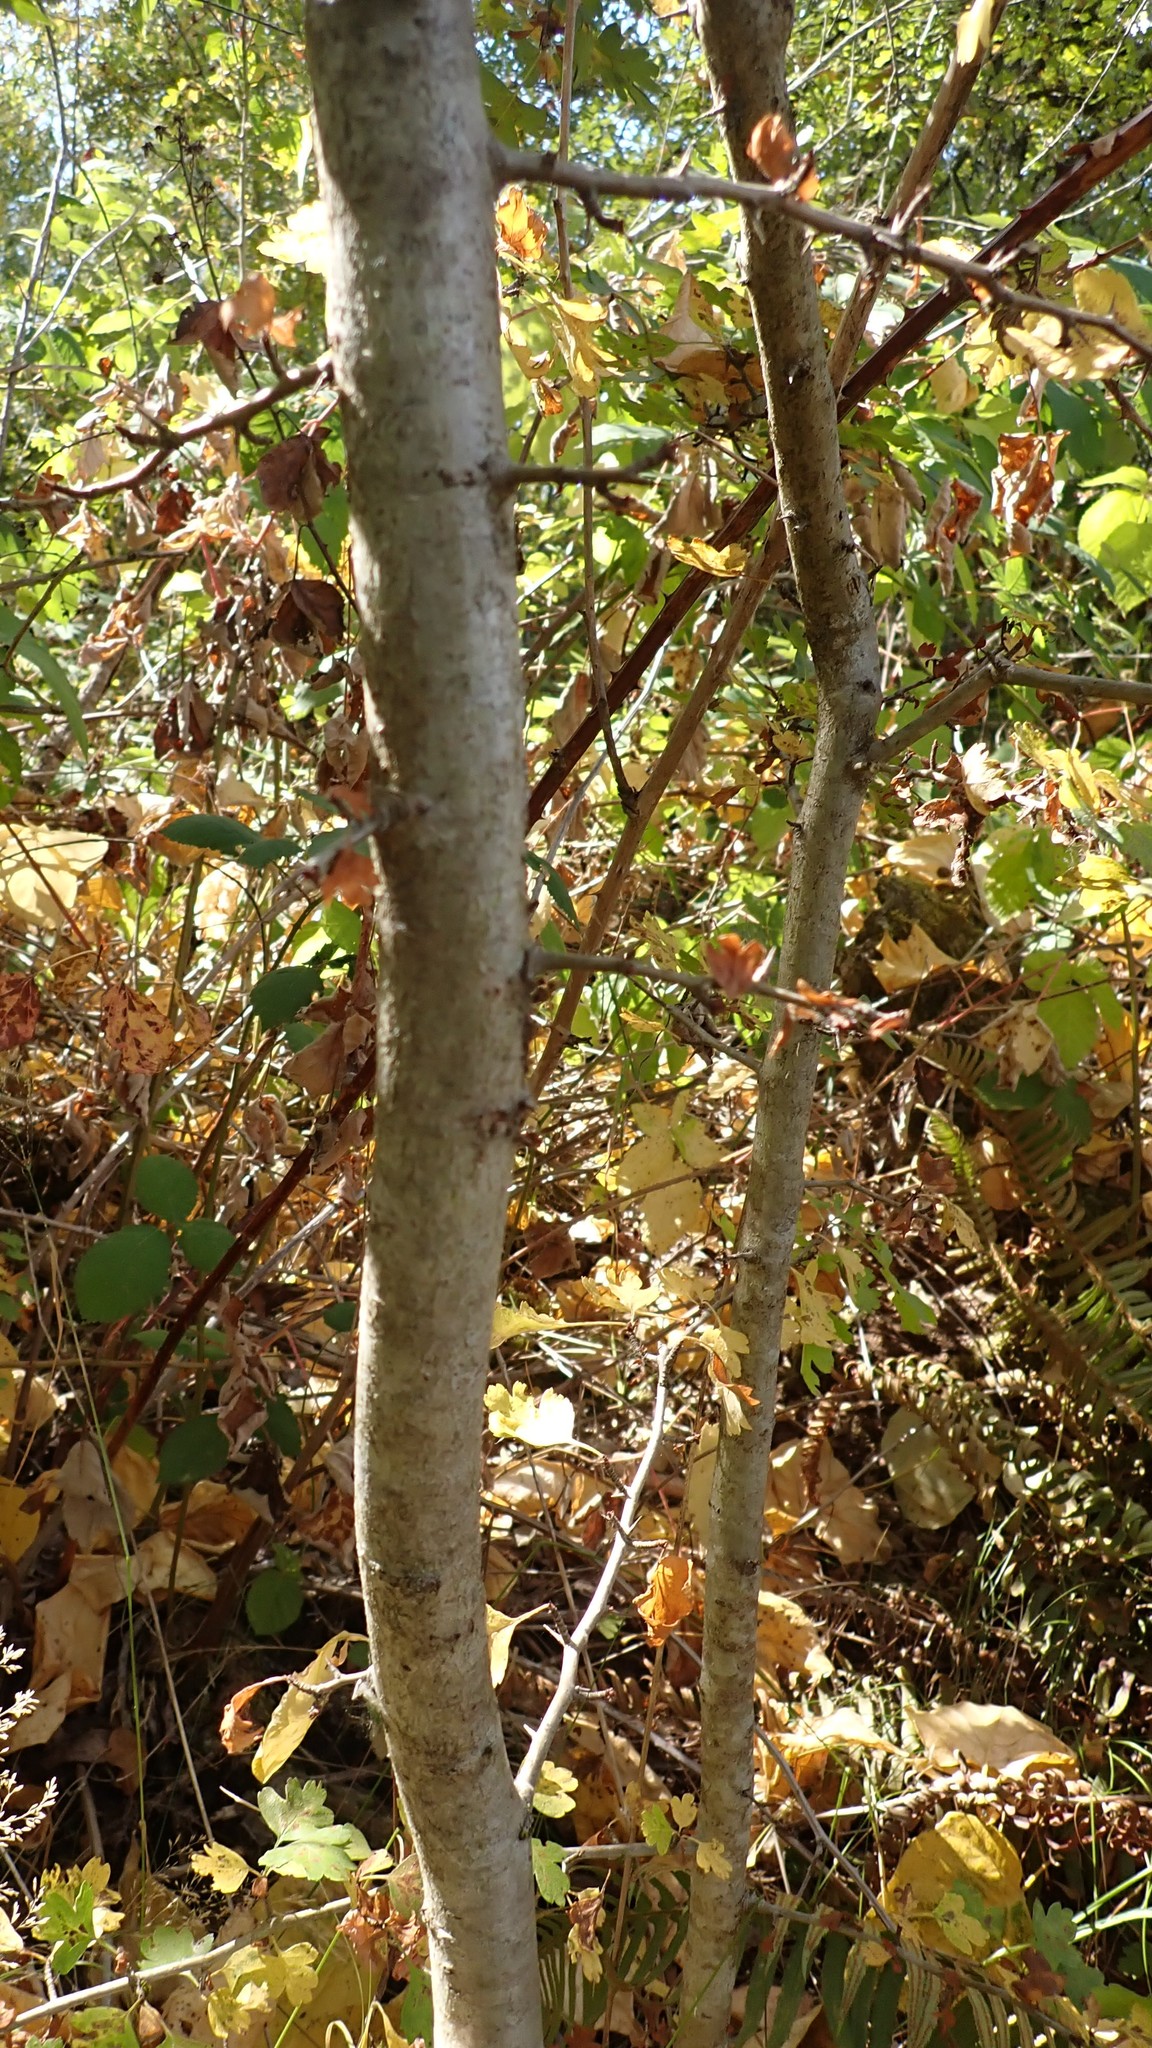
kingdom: Plantae
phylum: Tracheophyta
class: Magnoliopsida
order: Rosales
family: Rosaceae
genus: Crataegus
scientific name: Crataegus monogyna
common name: Hawthorn
